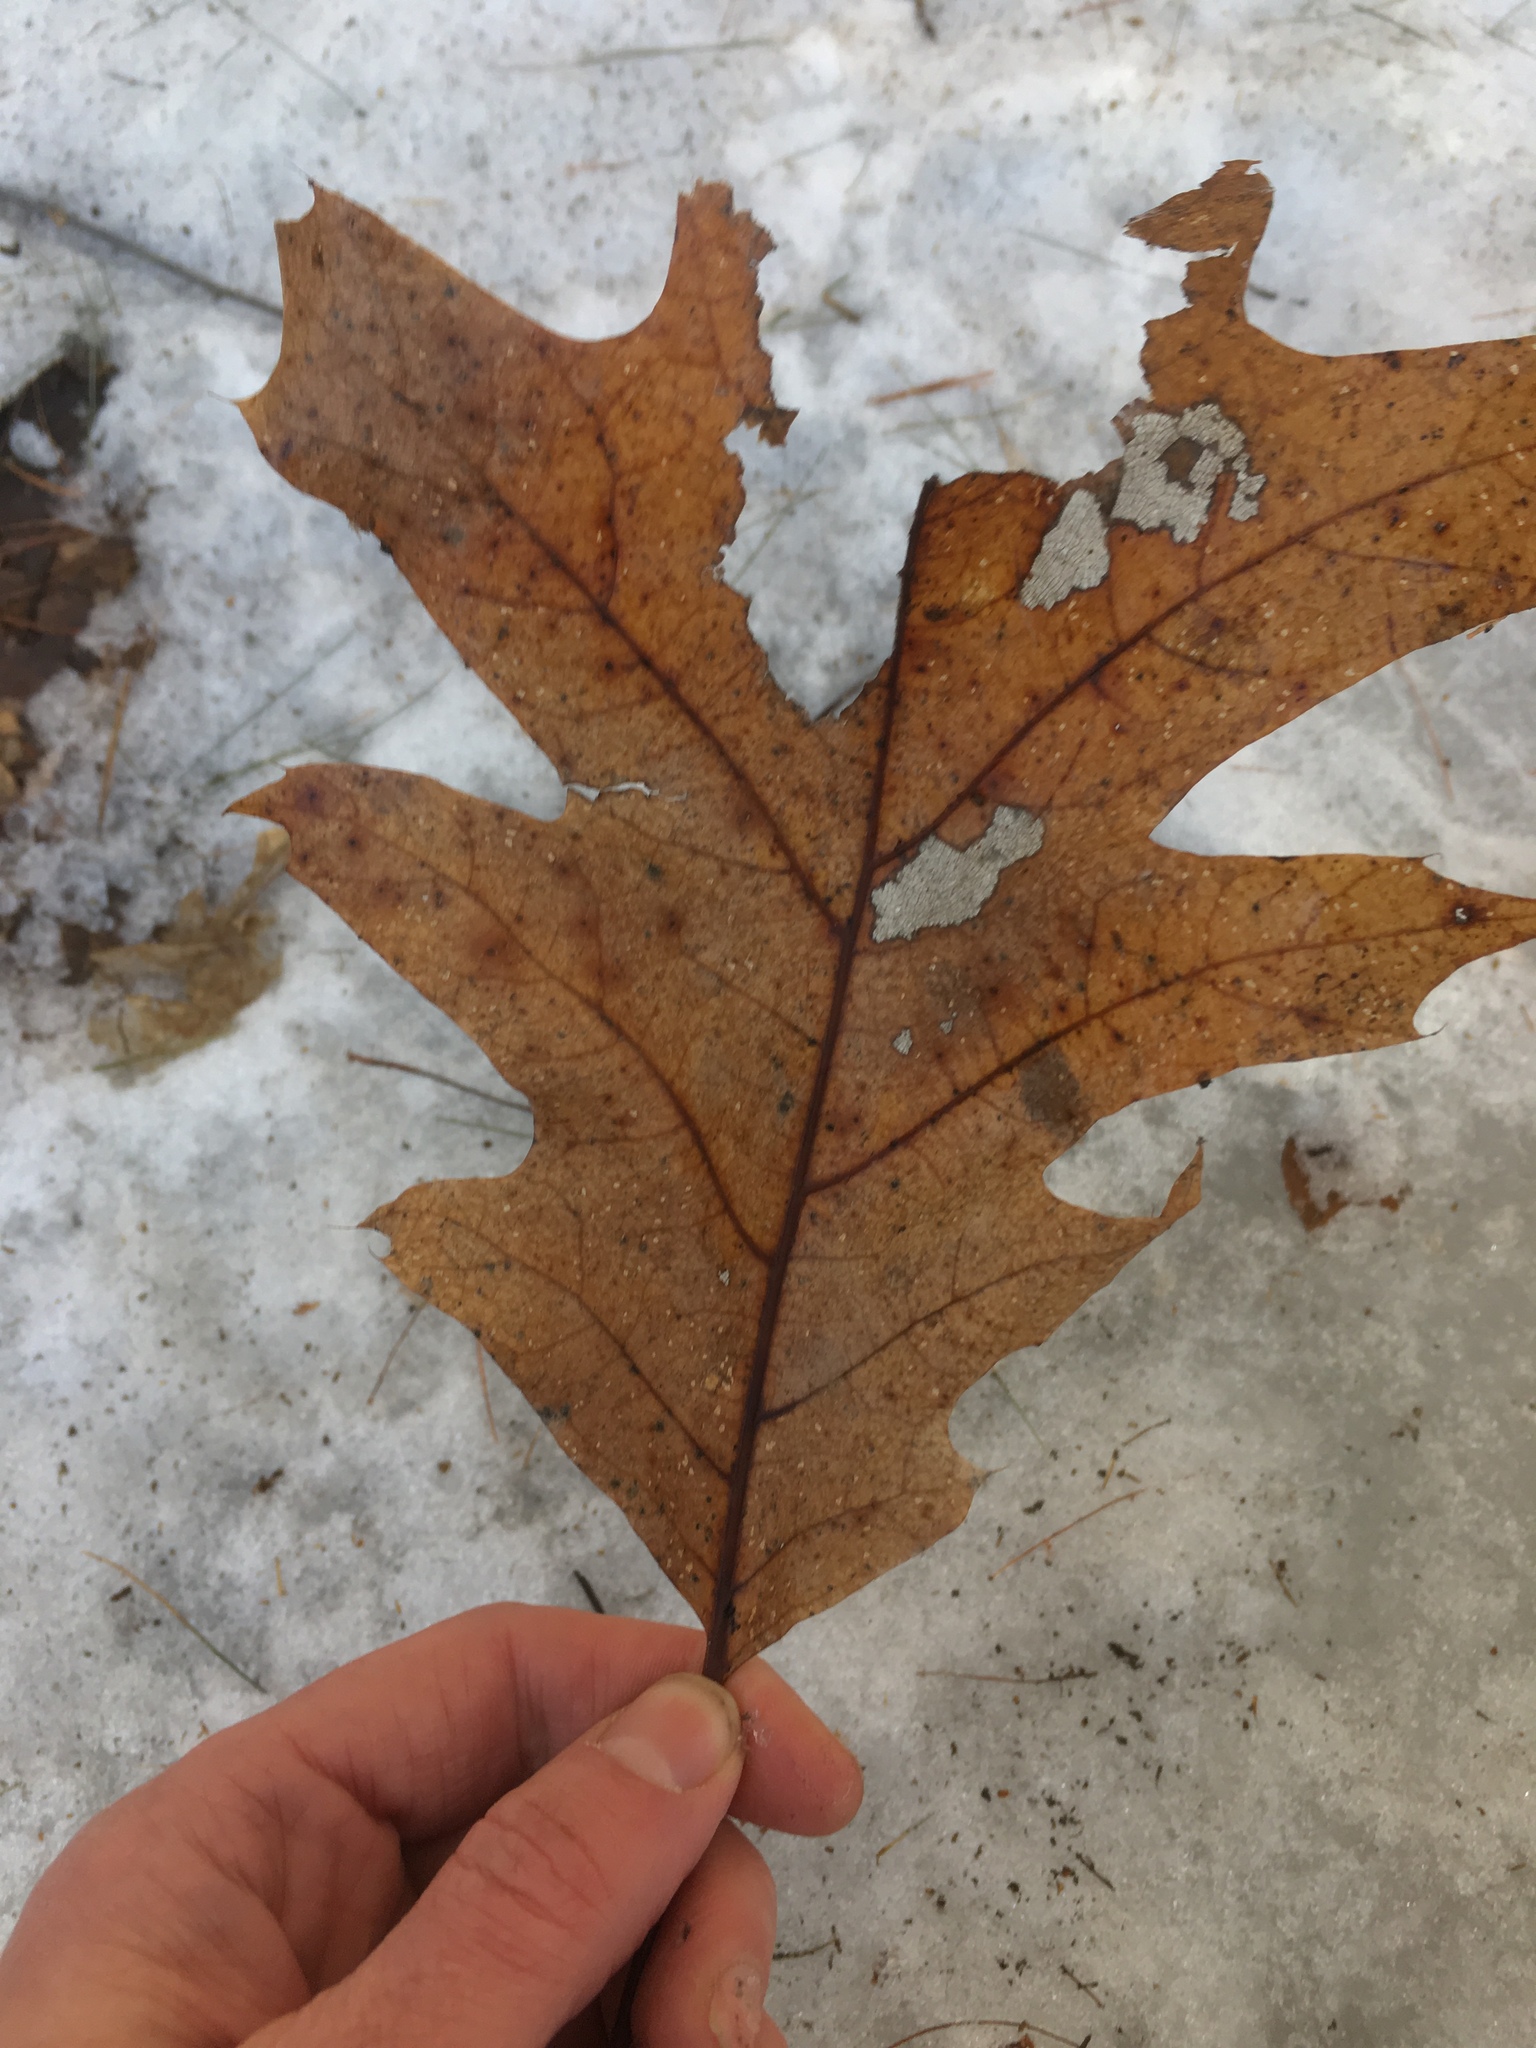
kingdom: Plantae
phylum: Tracheophyta
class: Magnoliopsida
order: Fagales
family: Fagaceae
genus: Quercus
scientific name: Quercus rubra
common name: Red oak
